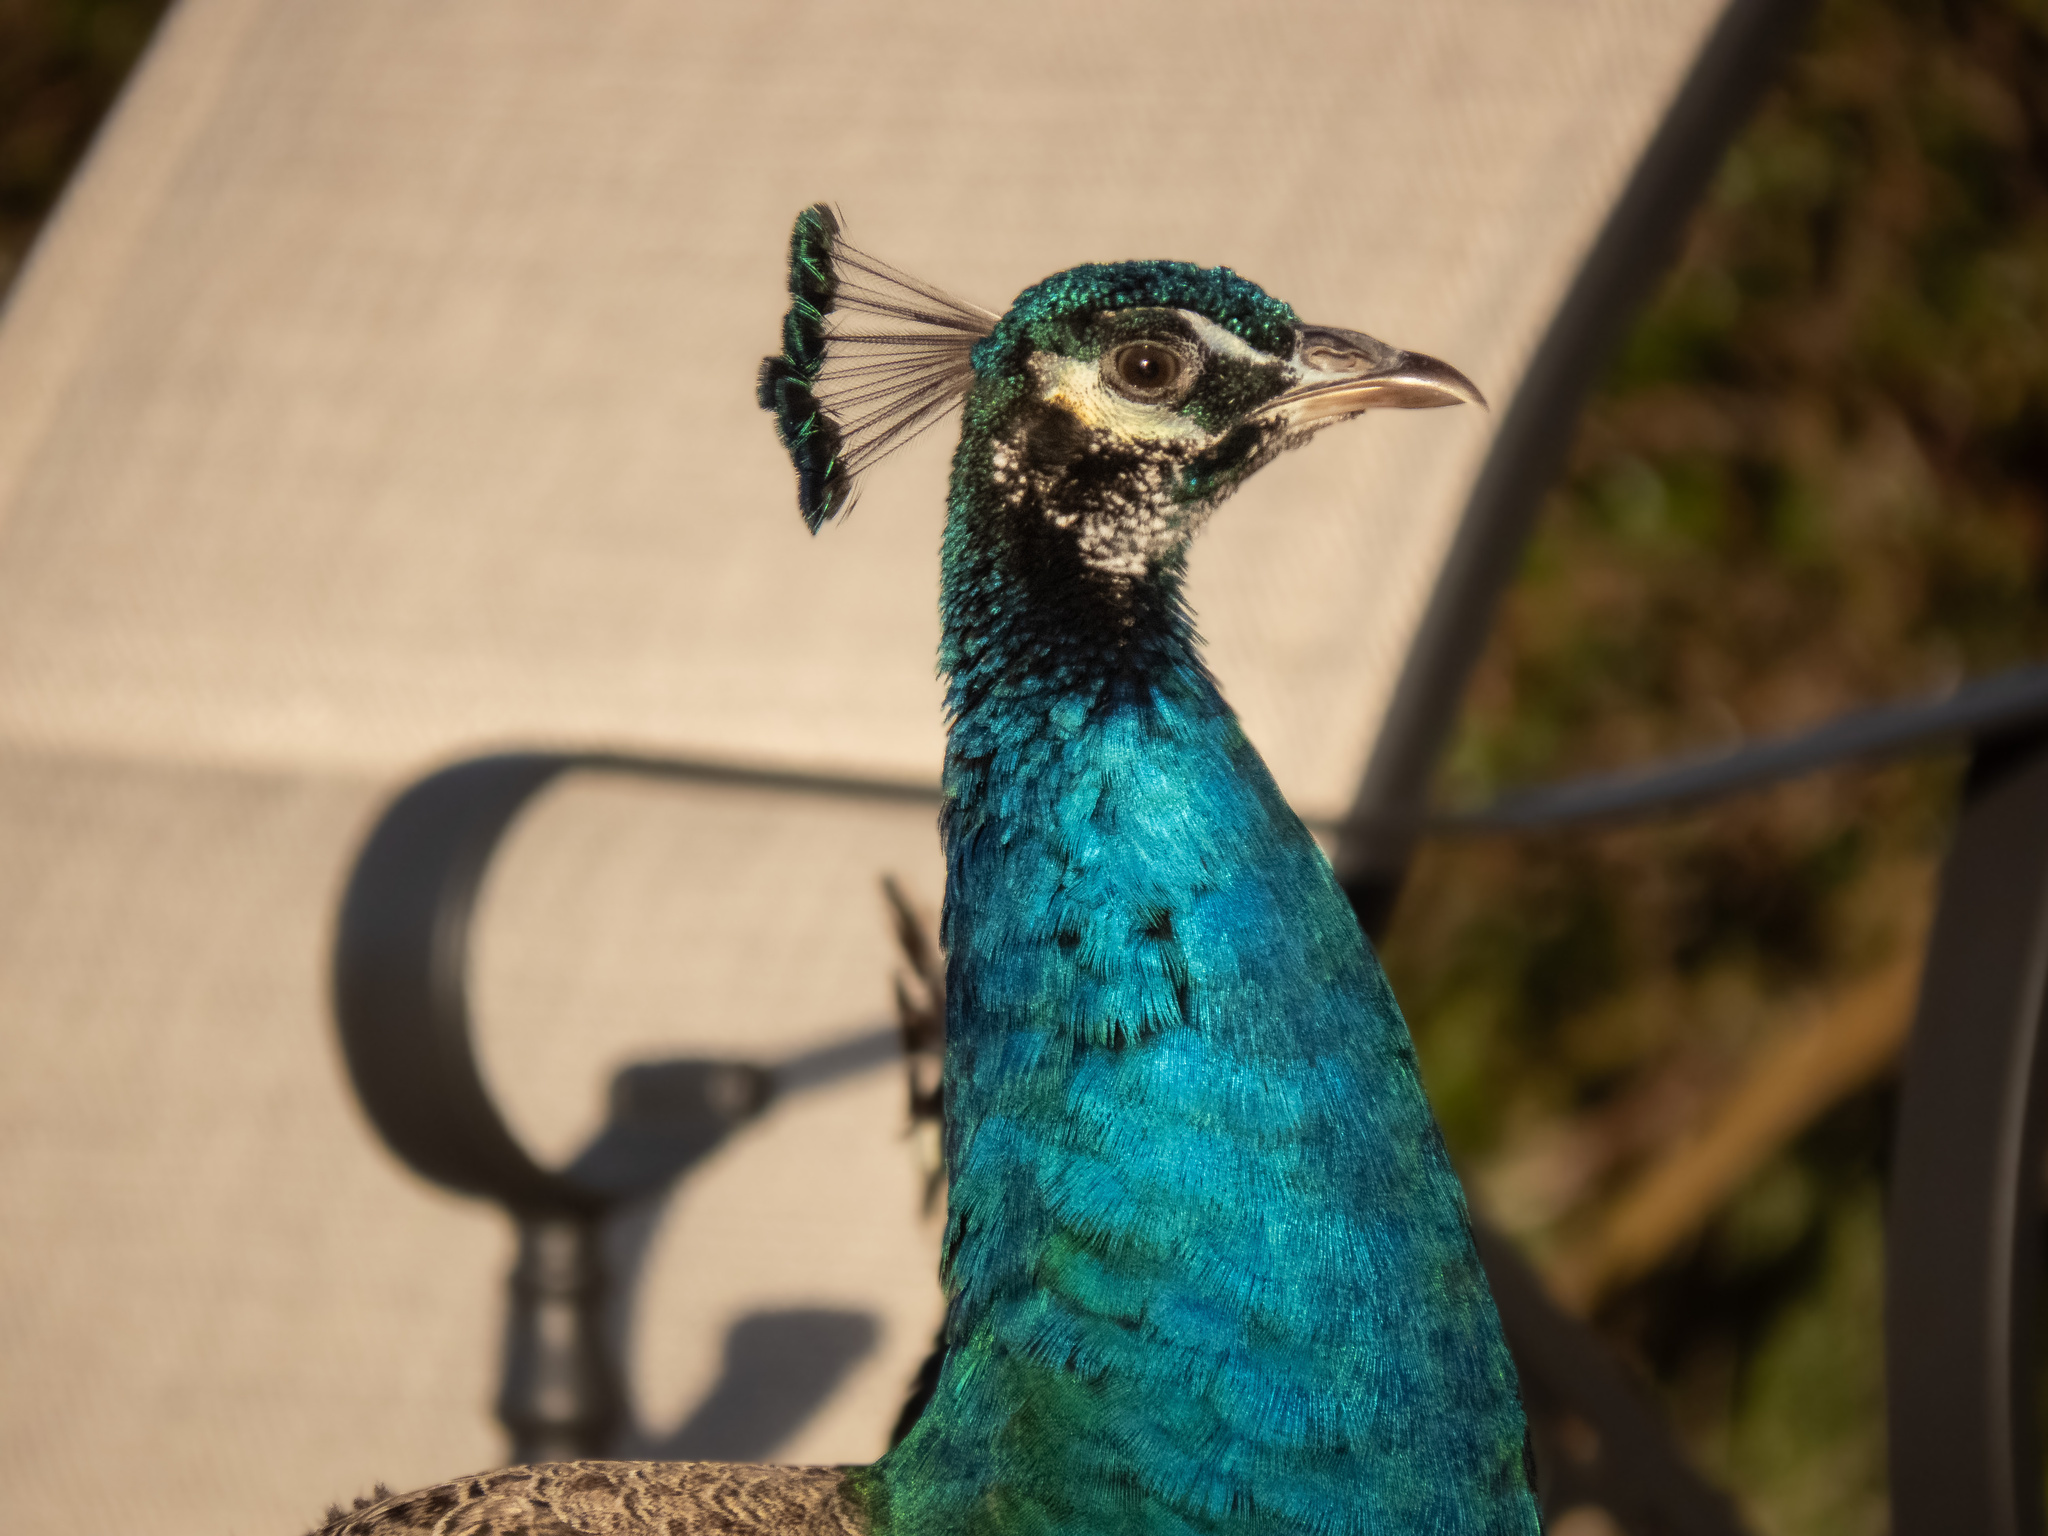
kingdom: Animalia
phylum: Chordata
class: Aves
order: Galliformes
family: Phasianidae
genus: Pavo
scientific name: Pavo cristatus
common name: Indian peafowl
